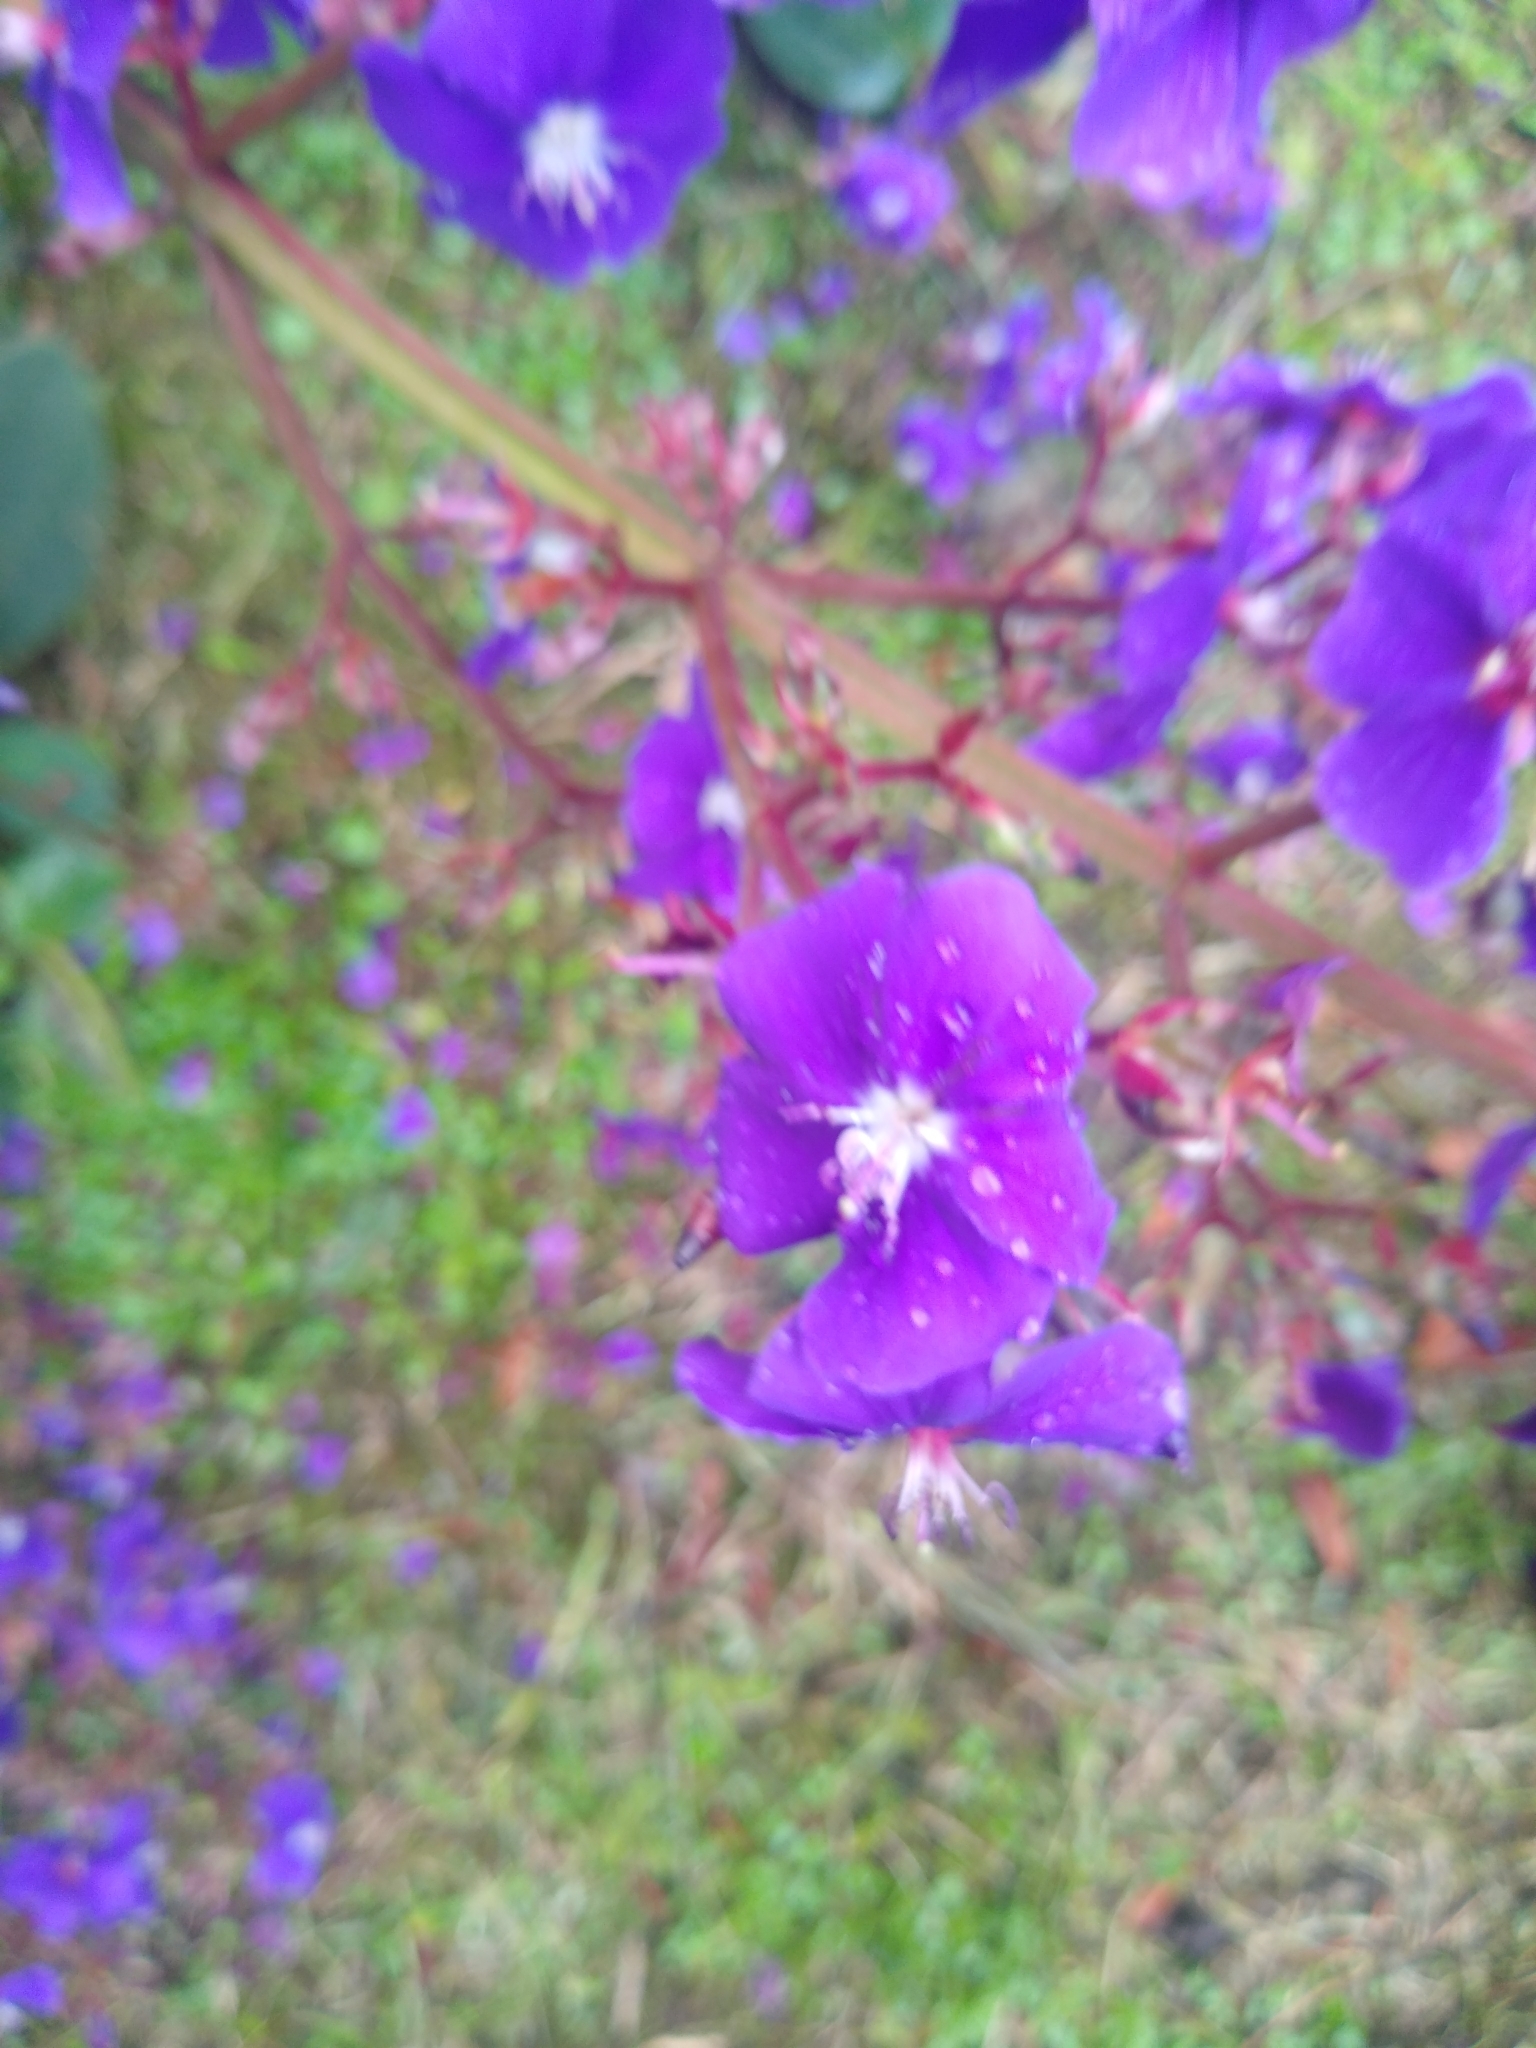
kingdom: Plantae
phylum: Tracheophyta
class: Magnoliopsida
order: Myrtales
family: Melastomataceae
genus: Pleroma
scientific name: Pleroma heteromallum
